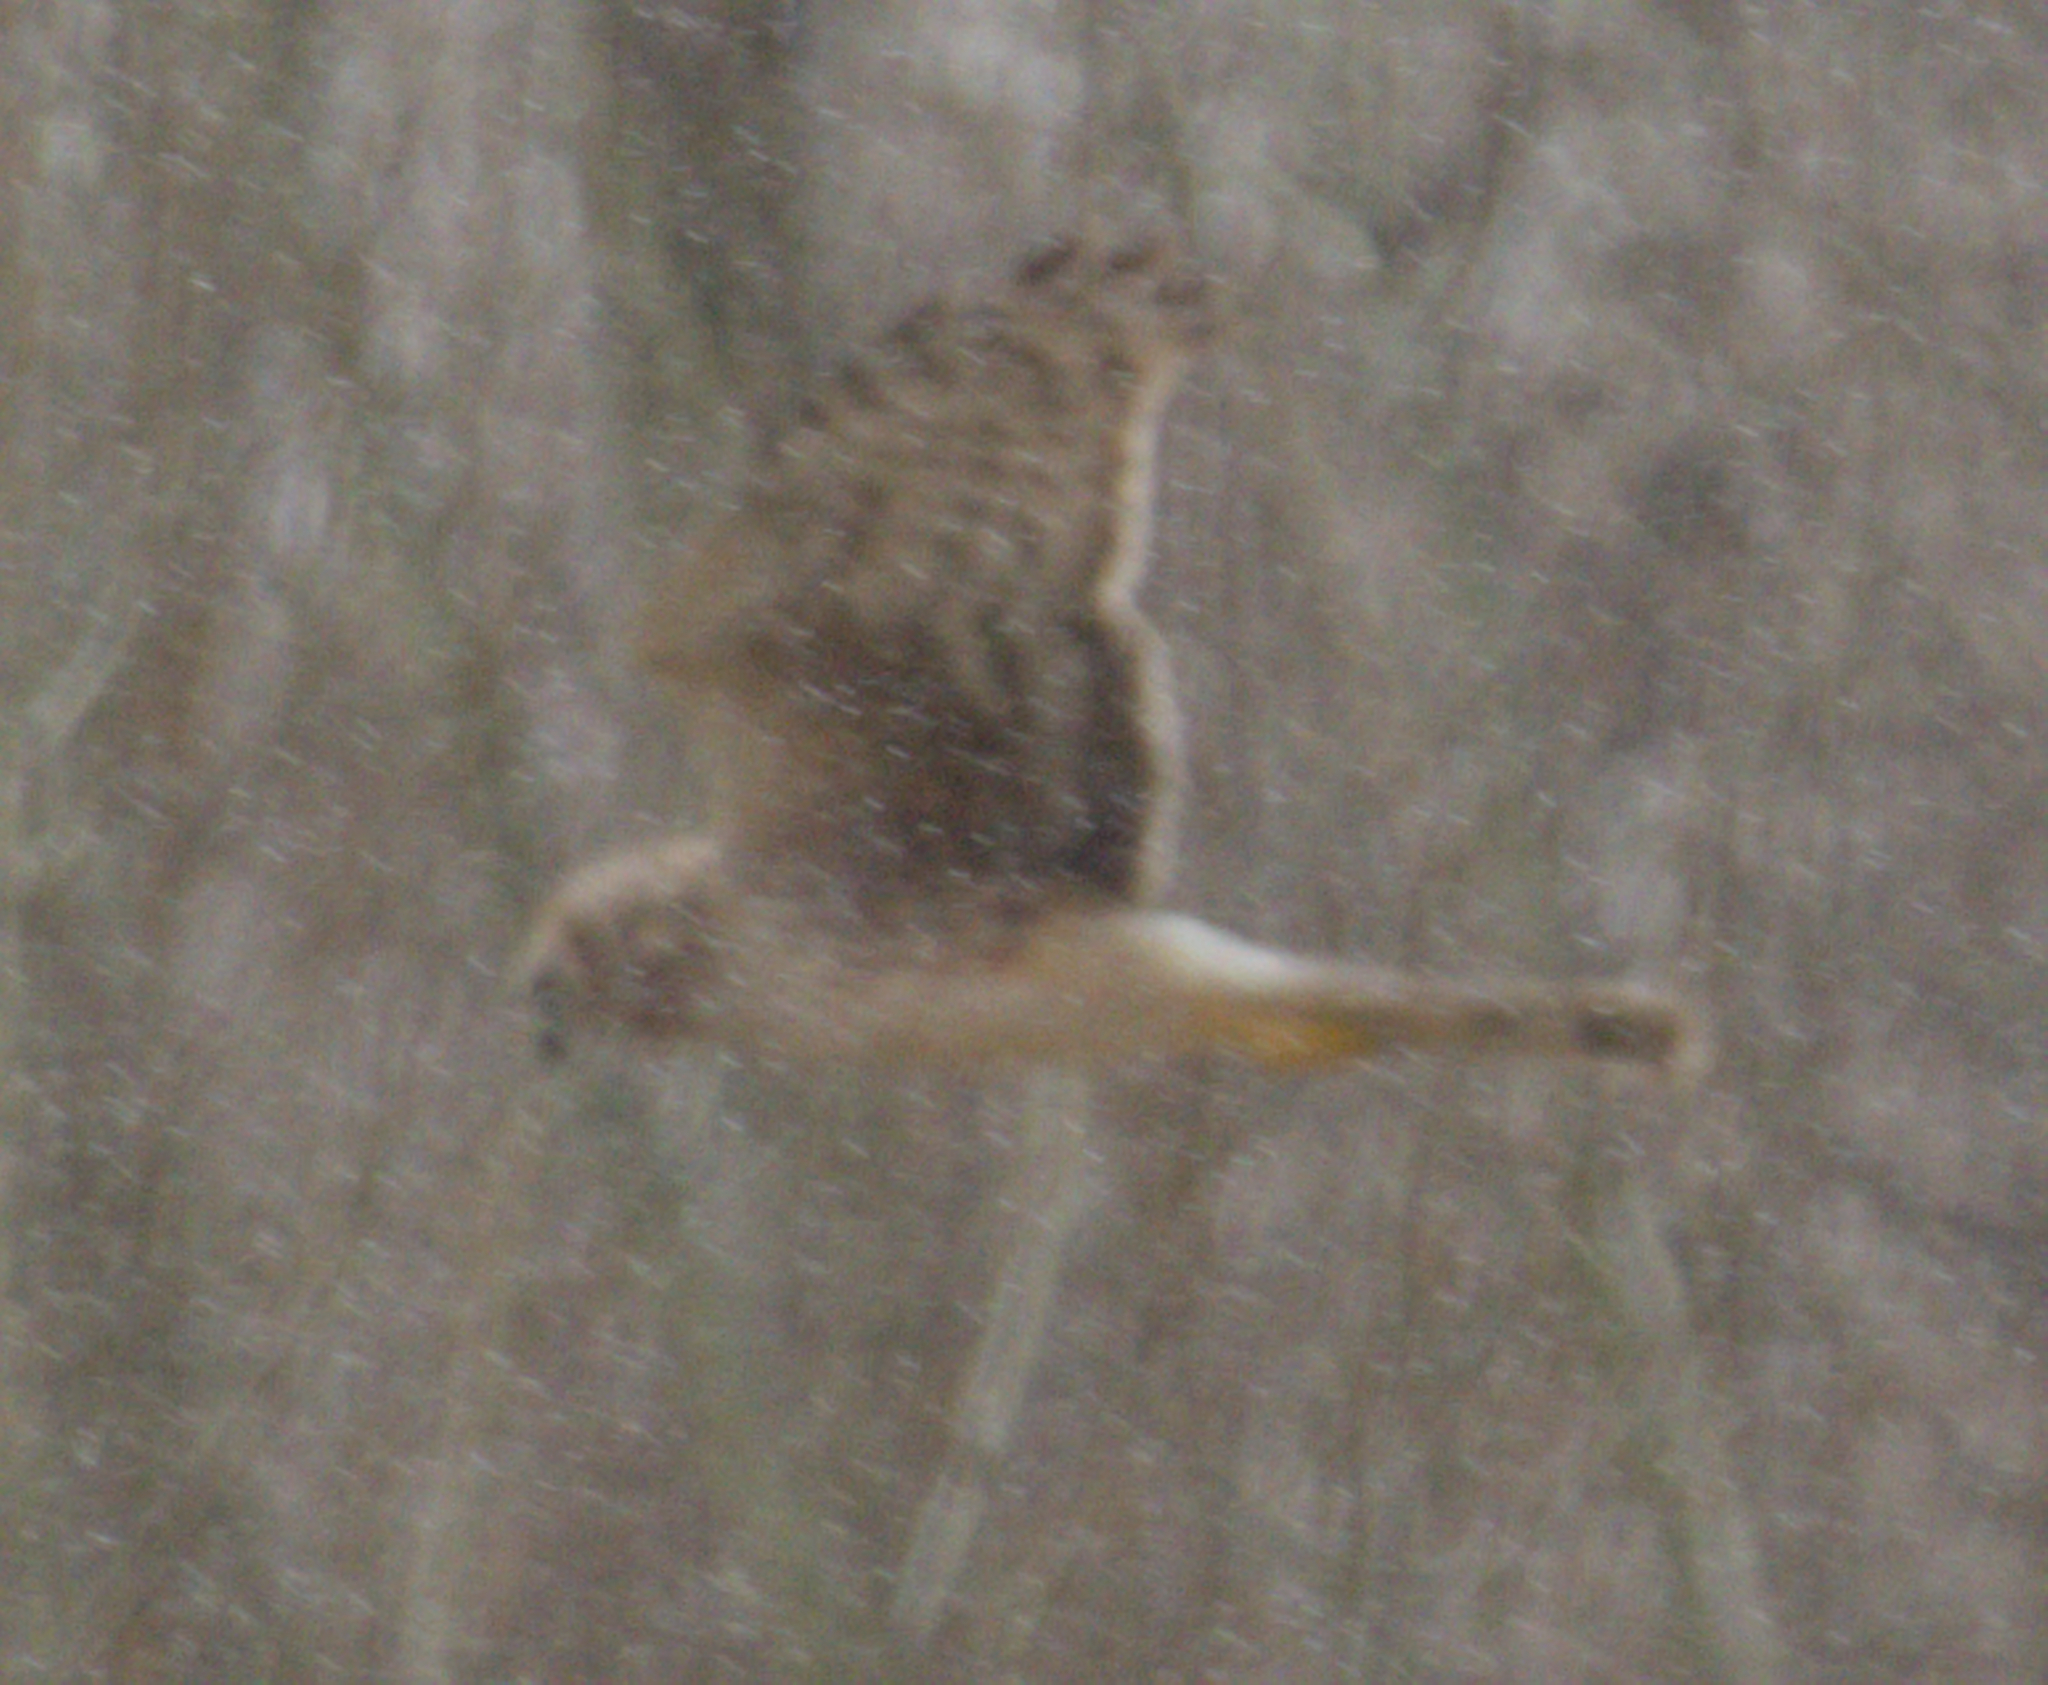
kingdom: Animalia
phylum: Chordata
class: Aves
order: Accipitriformes
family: Accipitridae
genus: Circus
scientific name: Circus cyaneus
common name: Hen harrier
